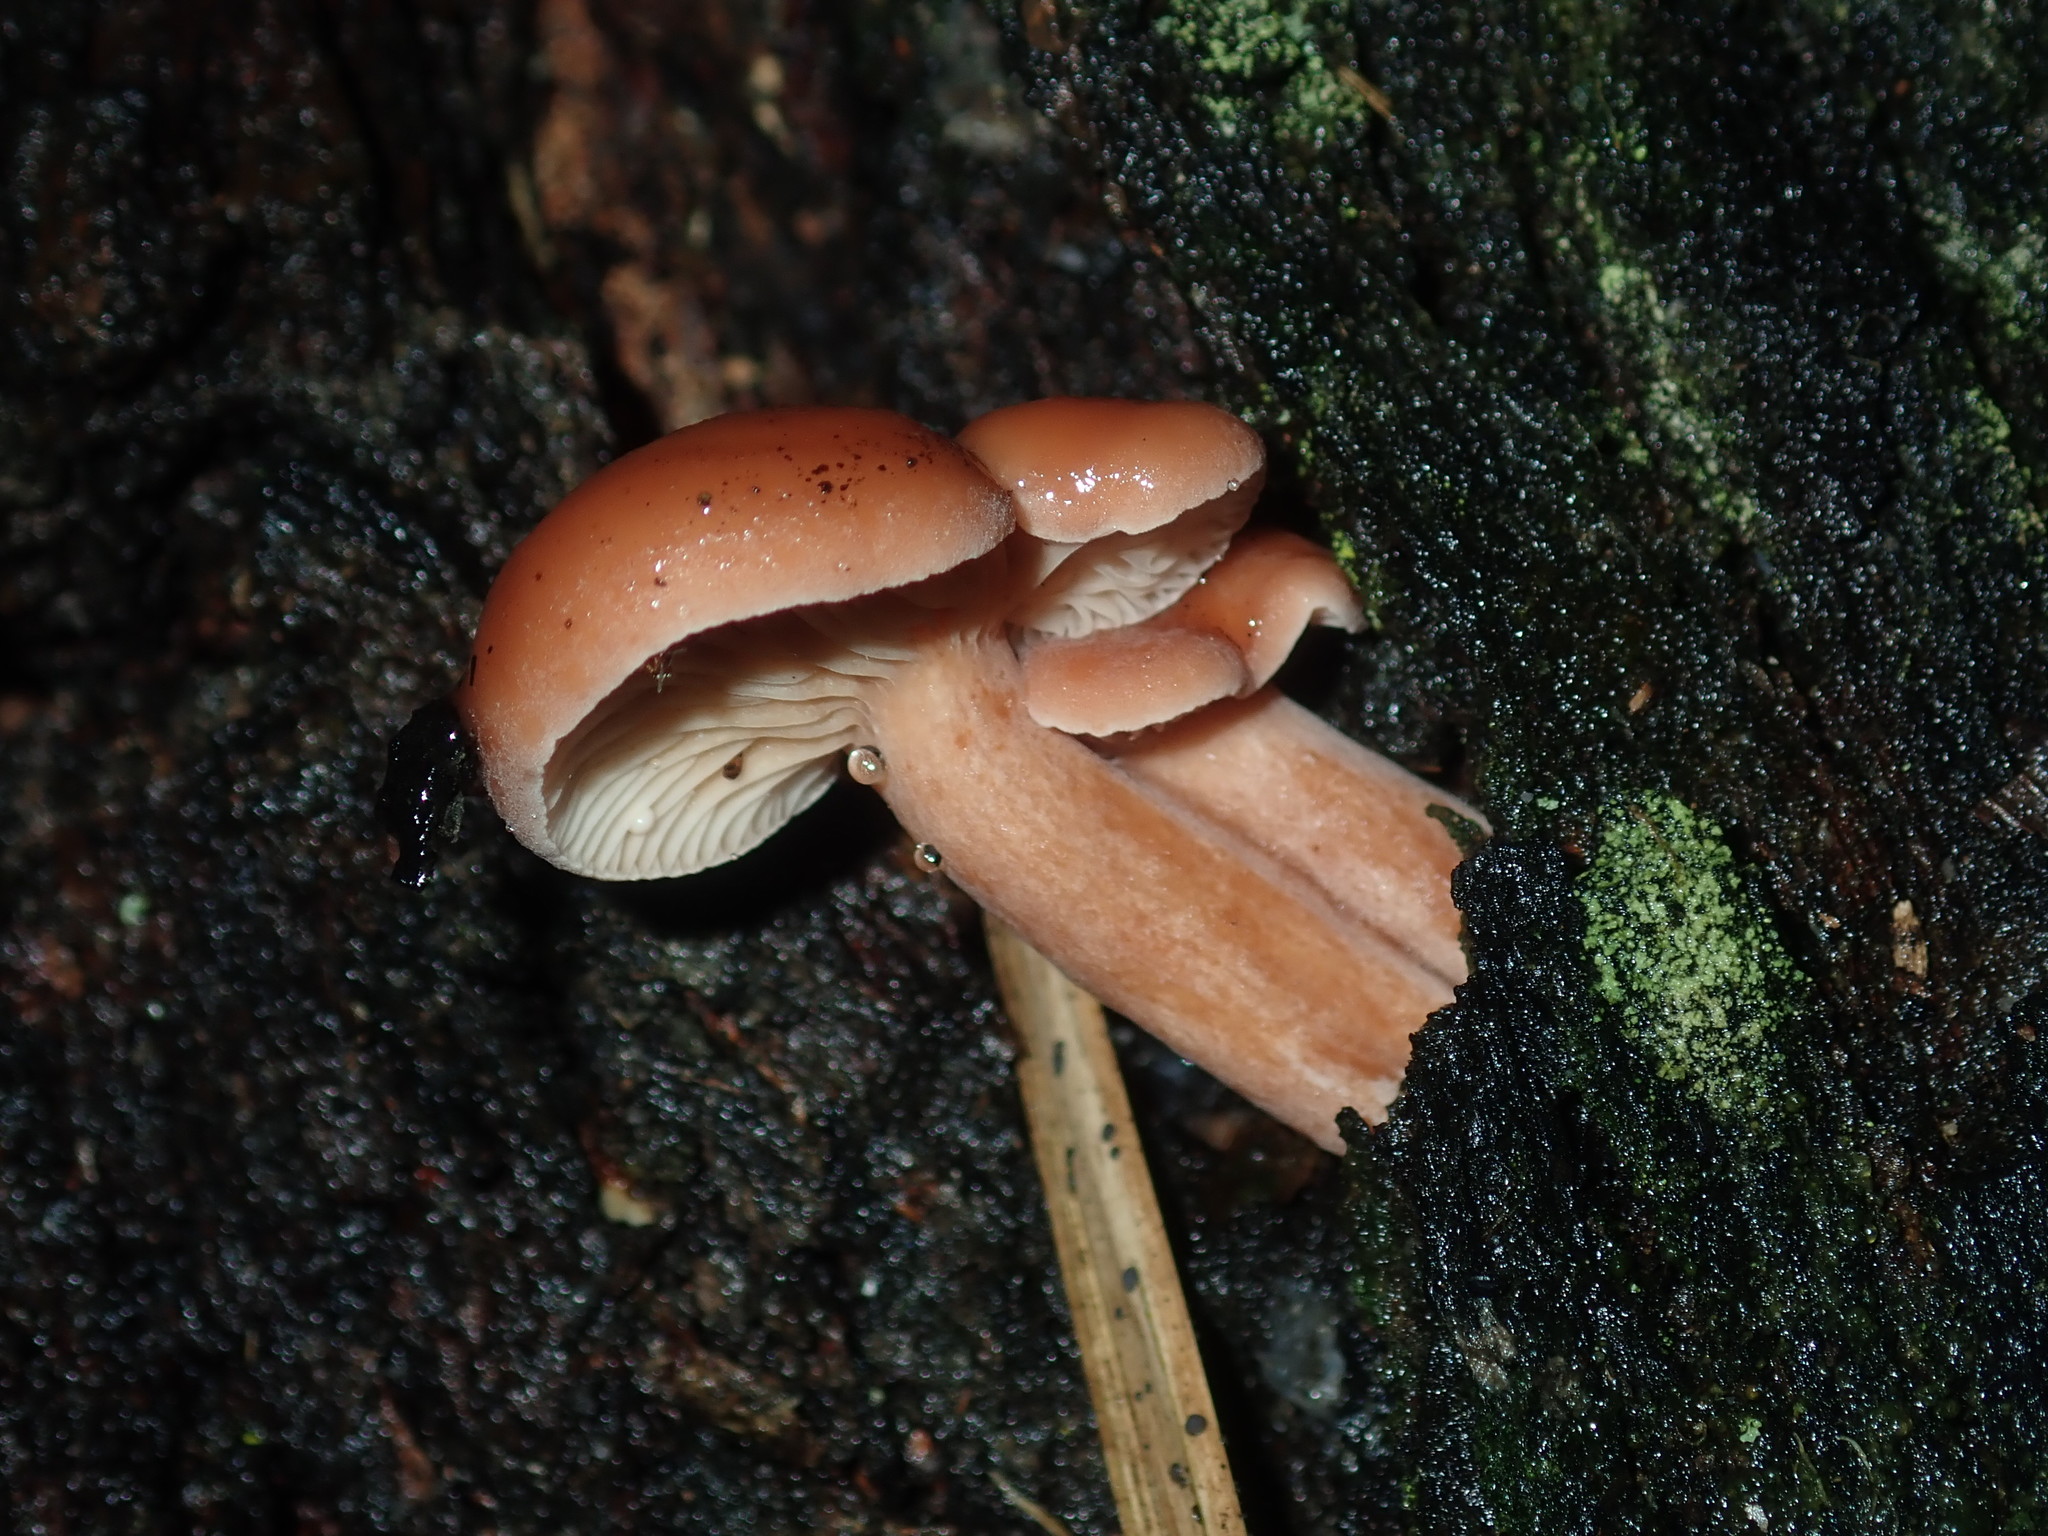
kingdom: Fungi
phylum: Basidiomycota
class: Agaricomycetes
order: Russulales
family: Russulaceae
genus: Lactarius
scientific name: Lactarius eucalypti
